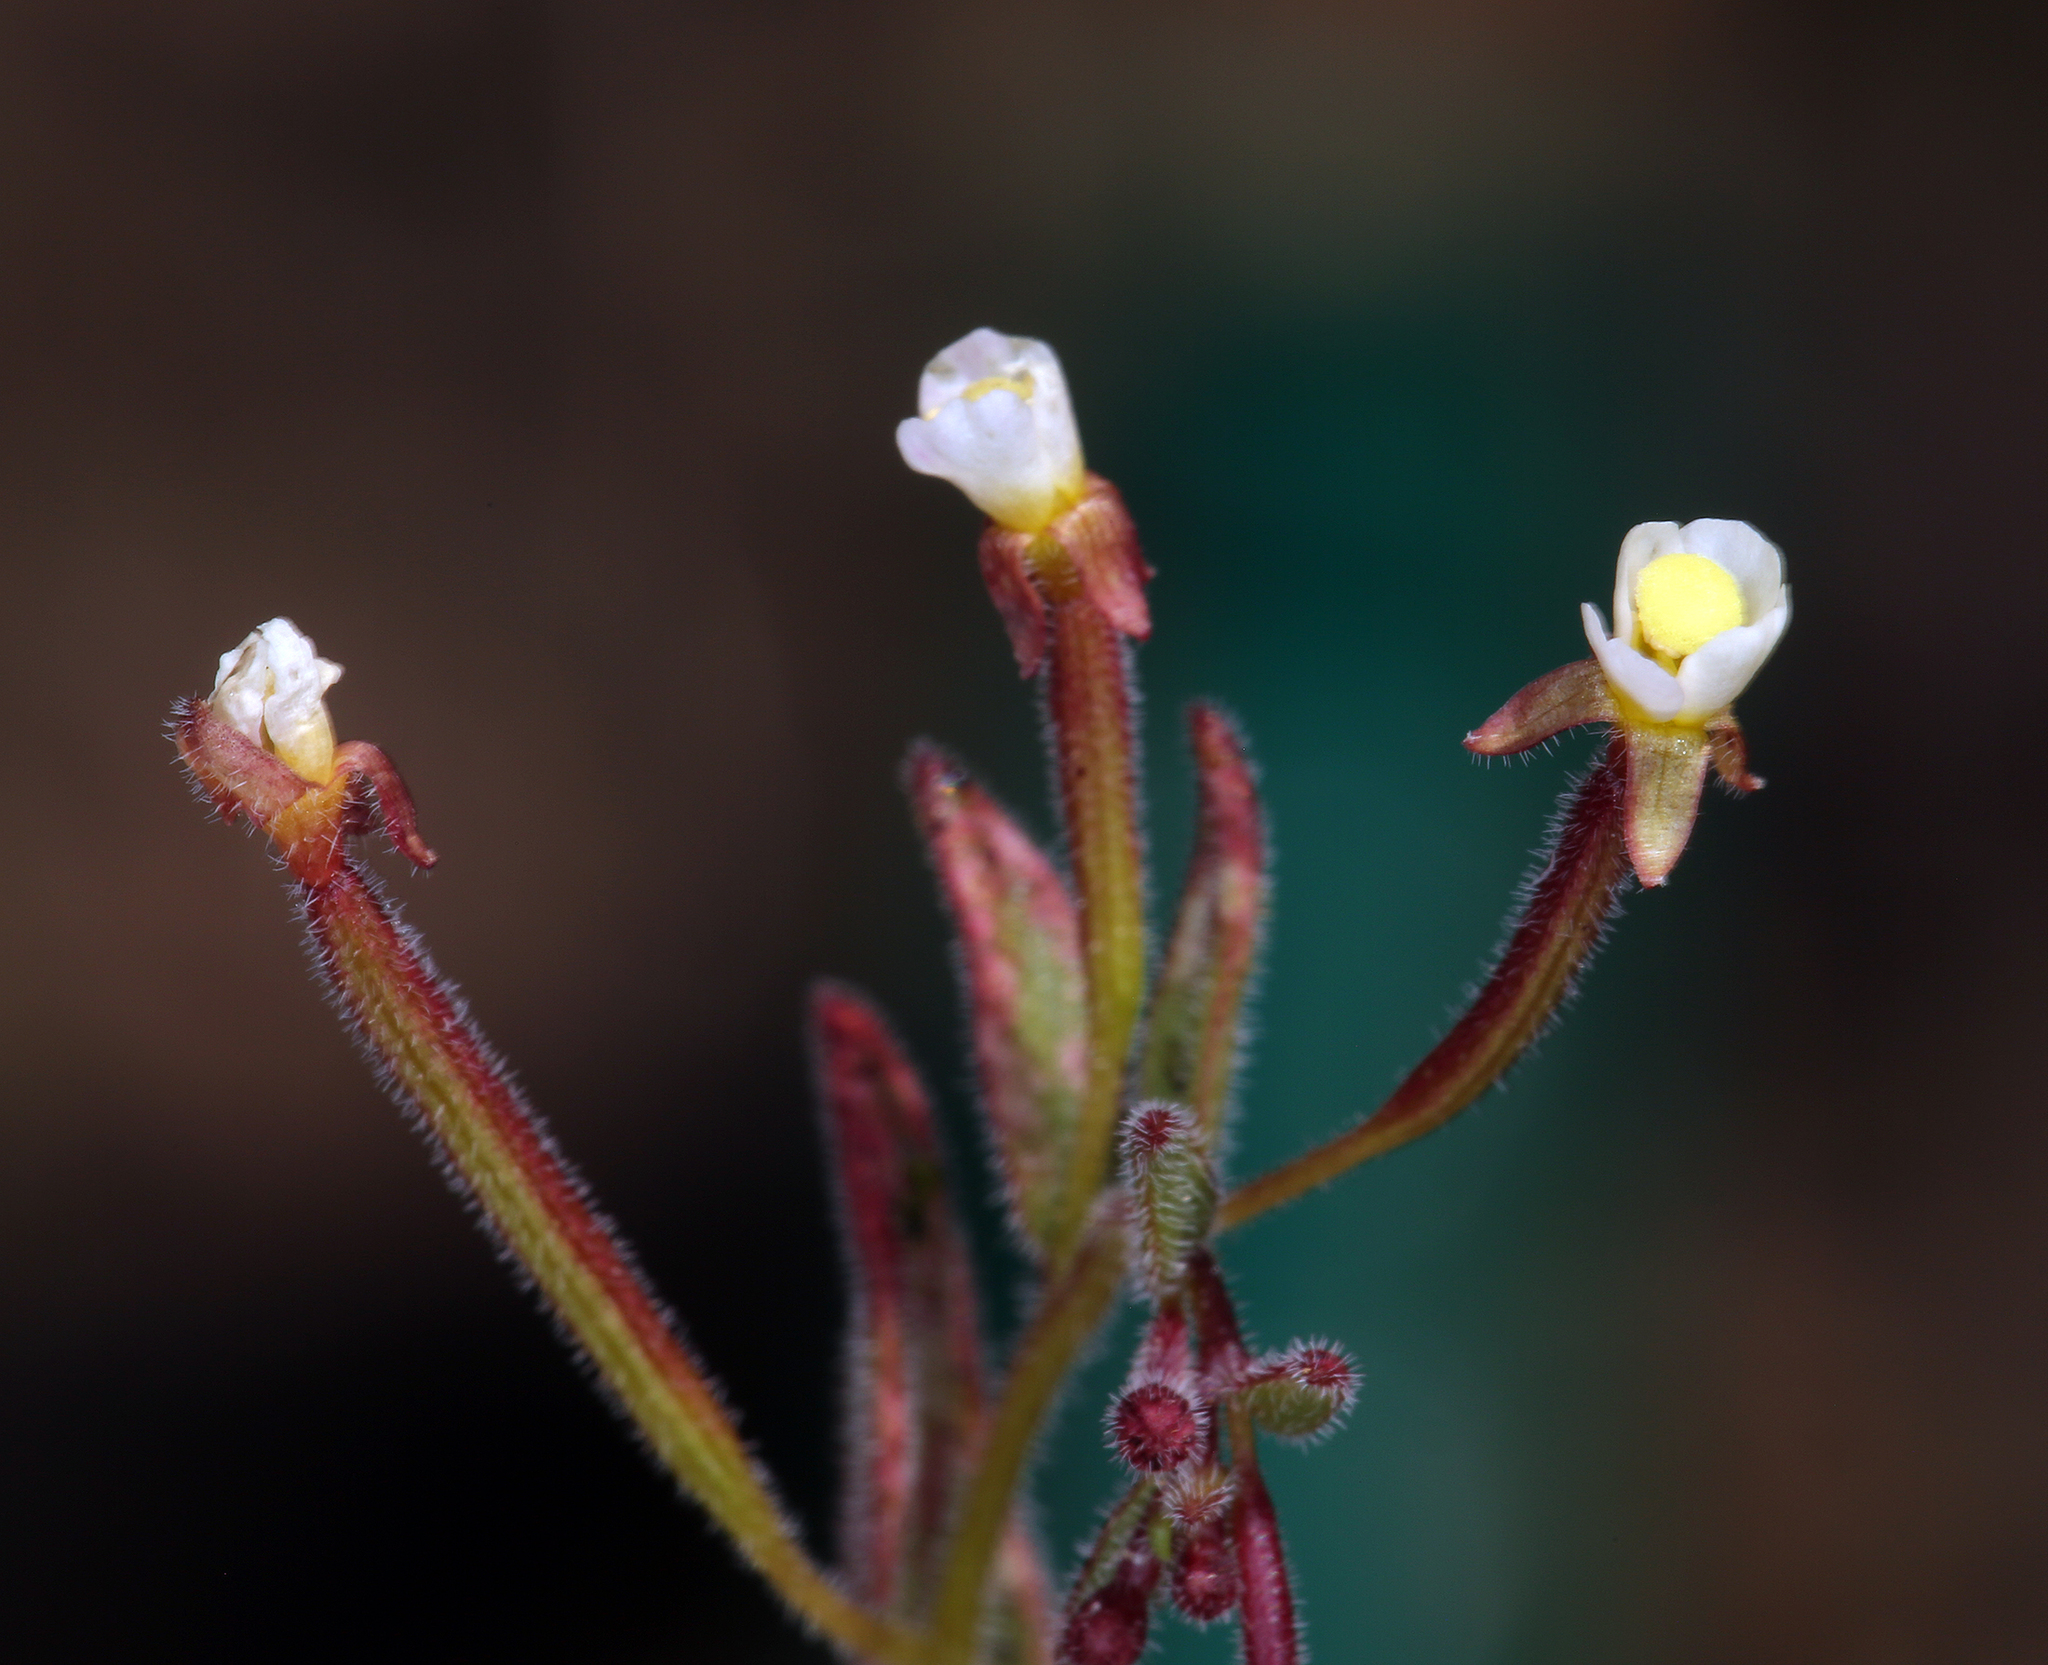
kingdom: Plantae
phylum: Tracheophyta
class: Magnoliopsida
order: Myrtales
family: Onagraceae
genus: Chylismiella
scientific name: Chylismiella pterosperma
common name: Wingfruit suncup
